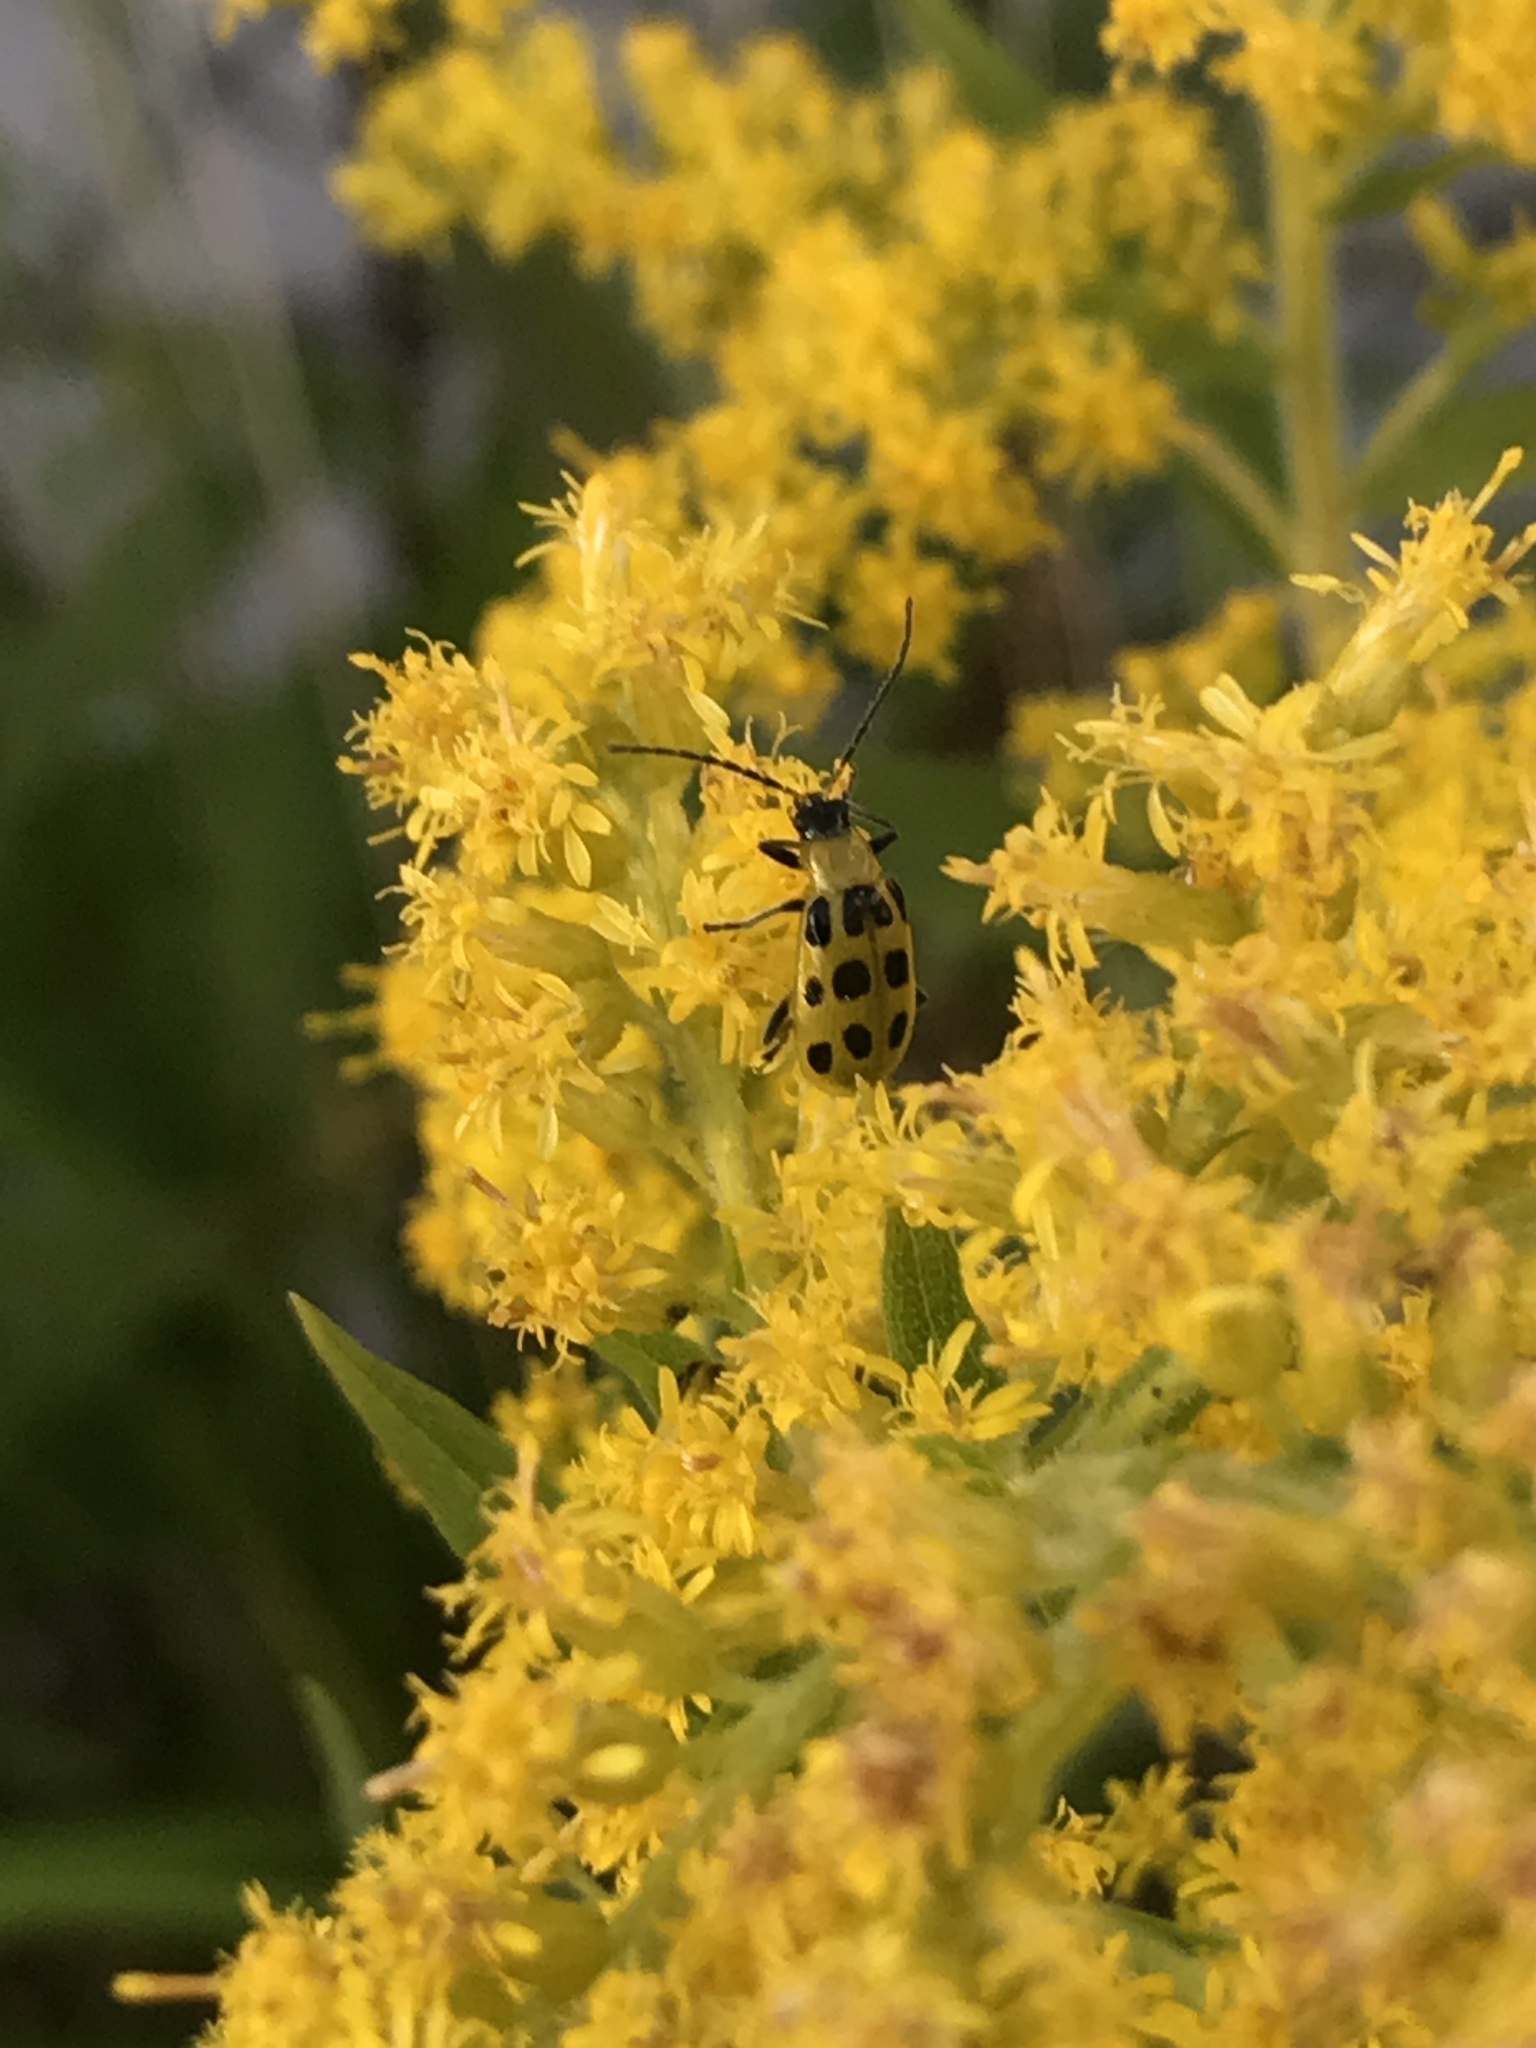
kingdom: Animalia
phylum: Arthropoda
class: Insecta
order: Coleoptera
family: Chrysomelidae
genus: Diabrotica
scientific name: Diabrotica undecimpunctata
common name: Spotted cucumber beetle
